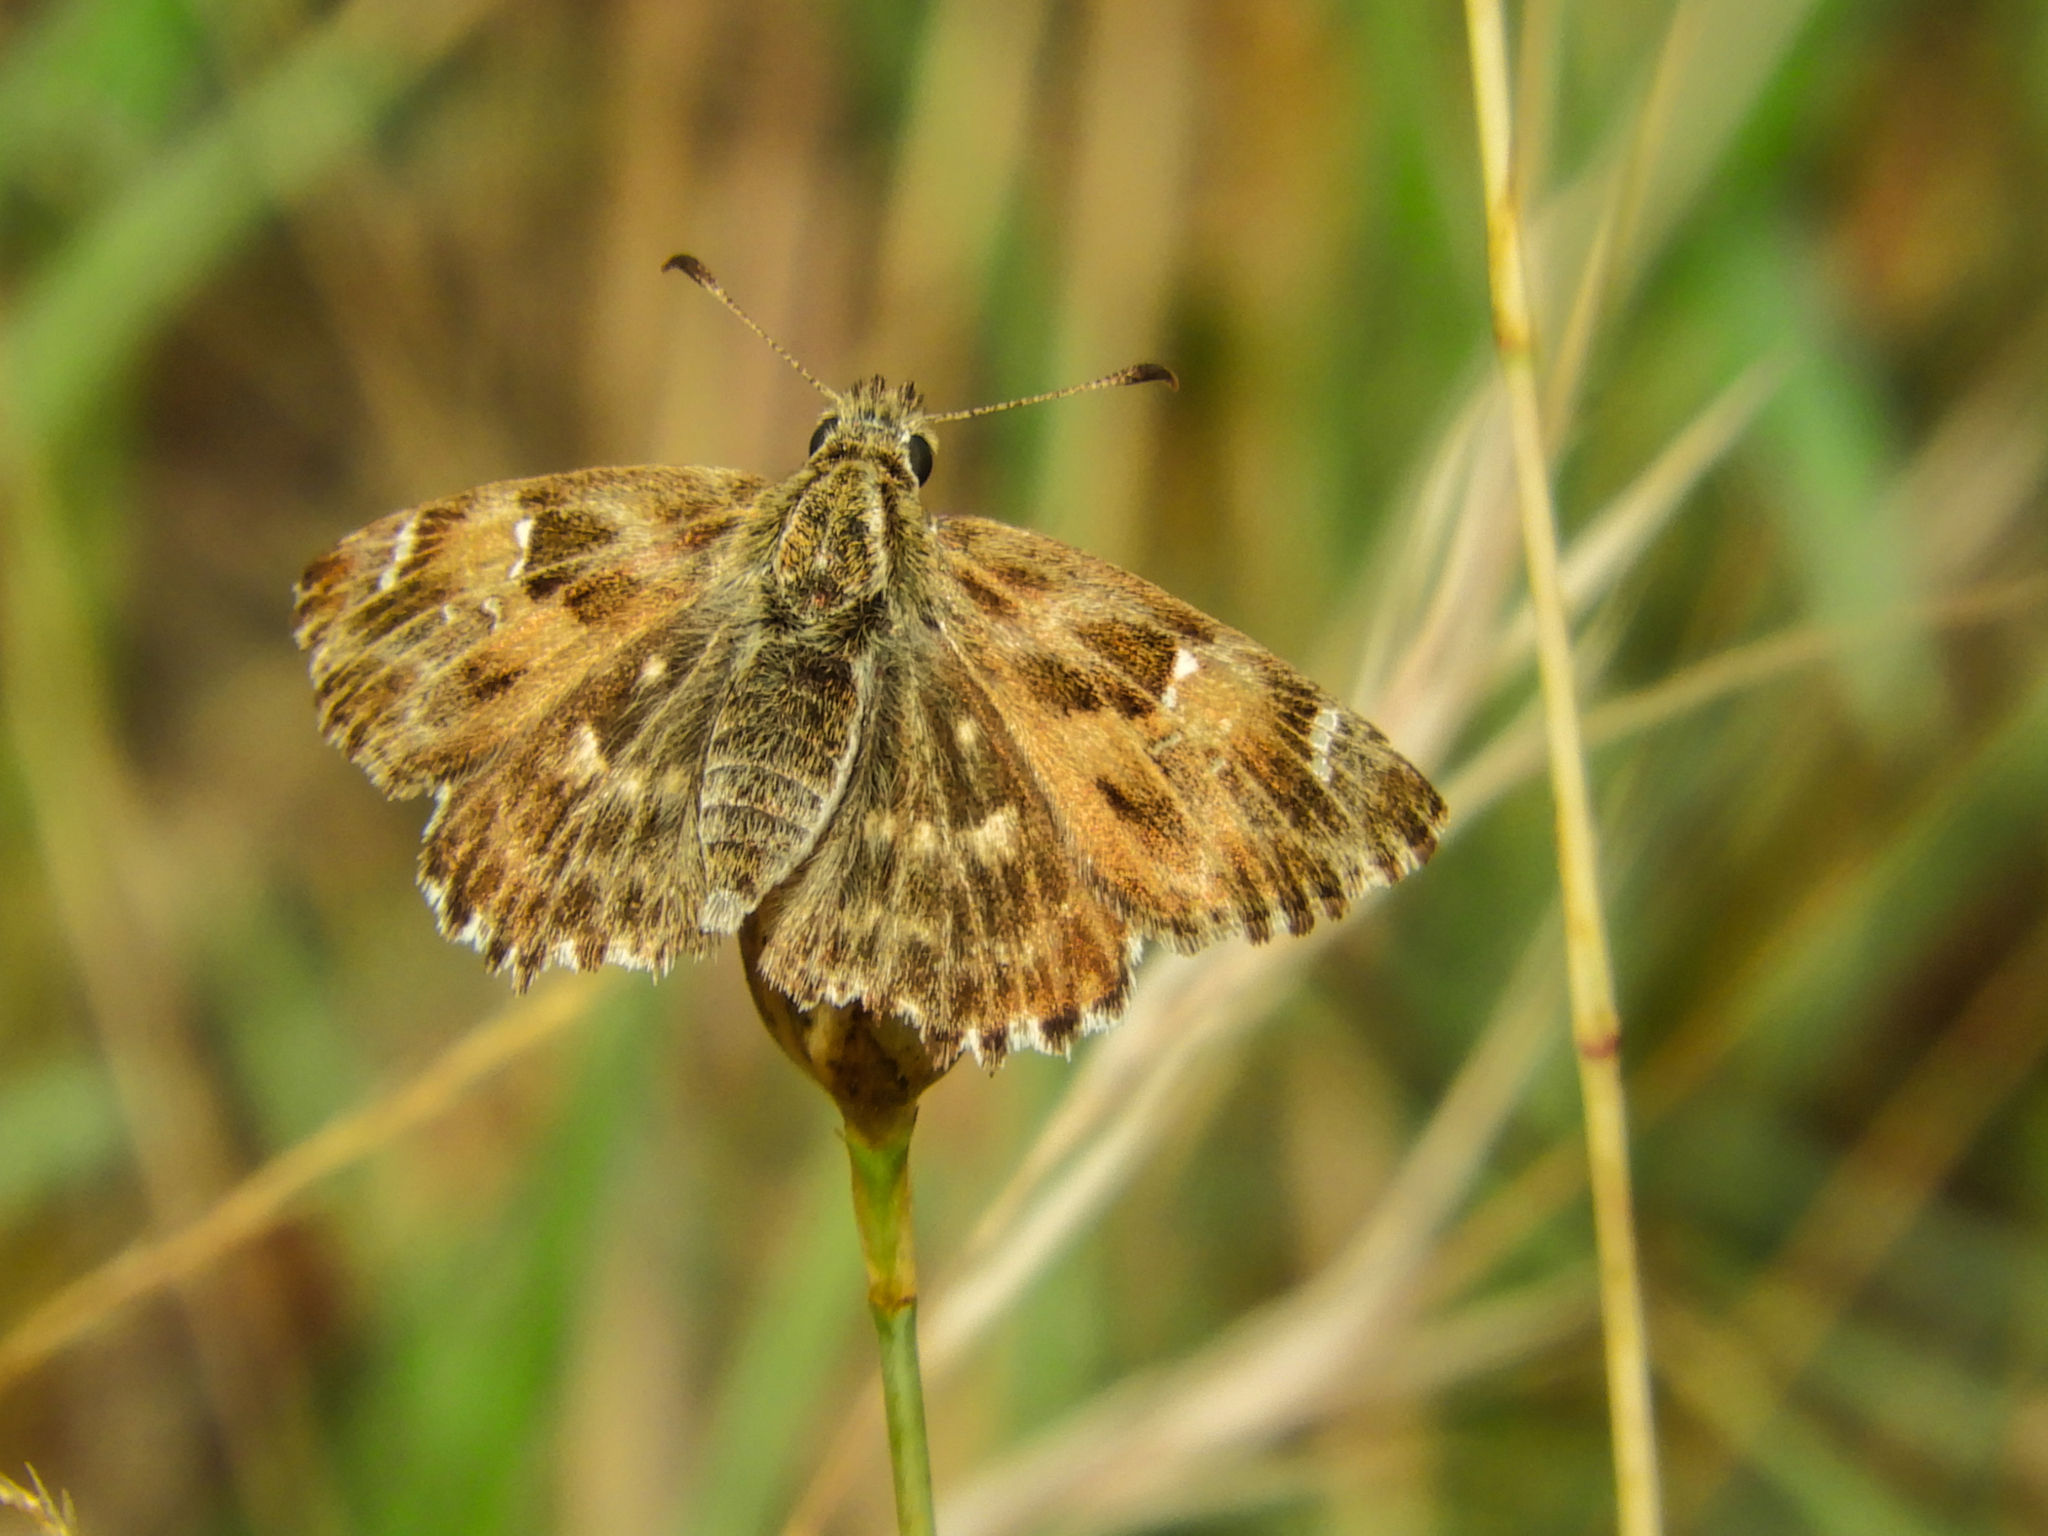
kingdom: Animalia
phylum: Arthropoda
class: Insecta
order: Lepidoptera
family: Hesperiidae
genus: Carcharodus
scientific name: Carcharodus alceae
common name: Mallow skipper
